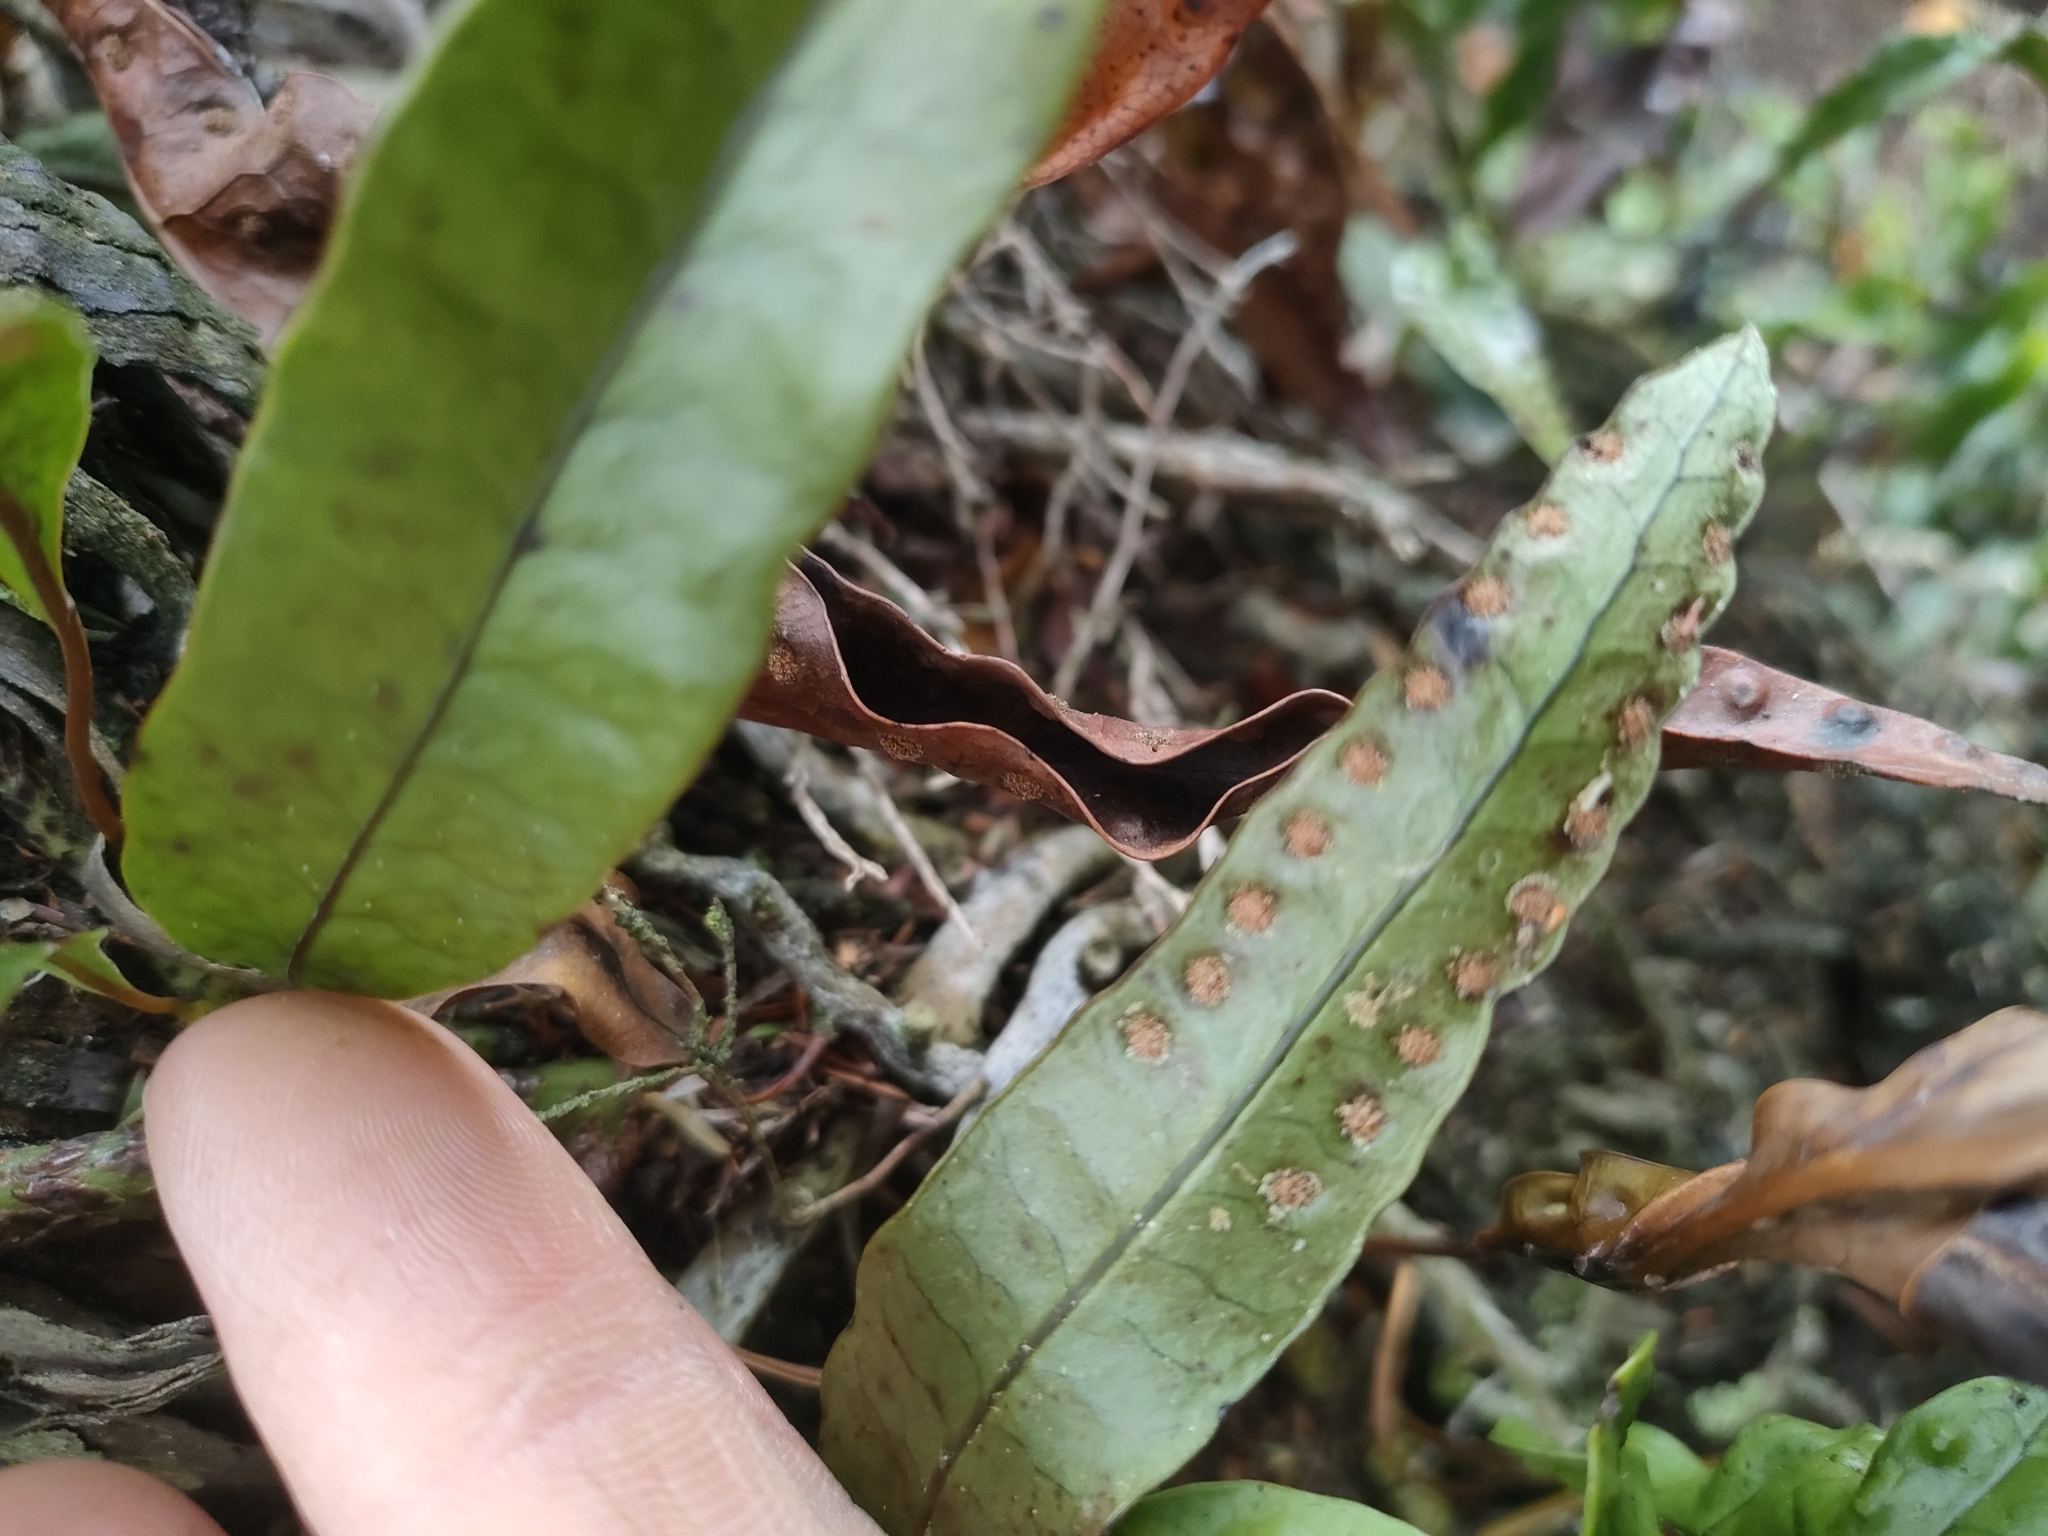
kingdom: Plantae
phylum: Tracheophyta
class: Polypodiopsida
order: Polypodiales
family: Polypodiaceae
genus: Lecanopteris
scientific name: Lecanopteris pustulata
